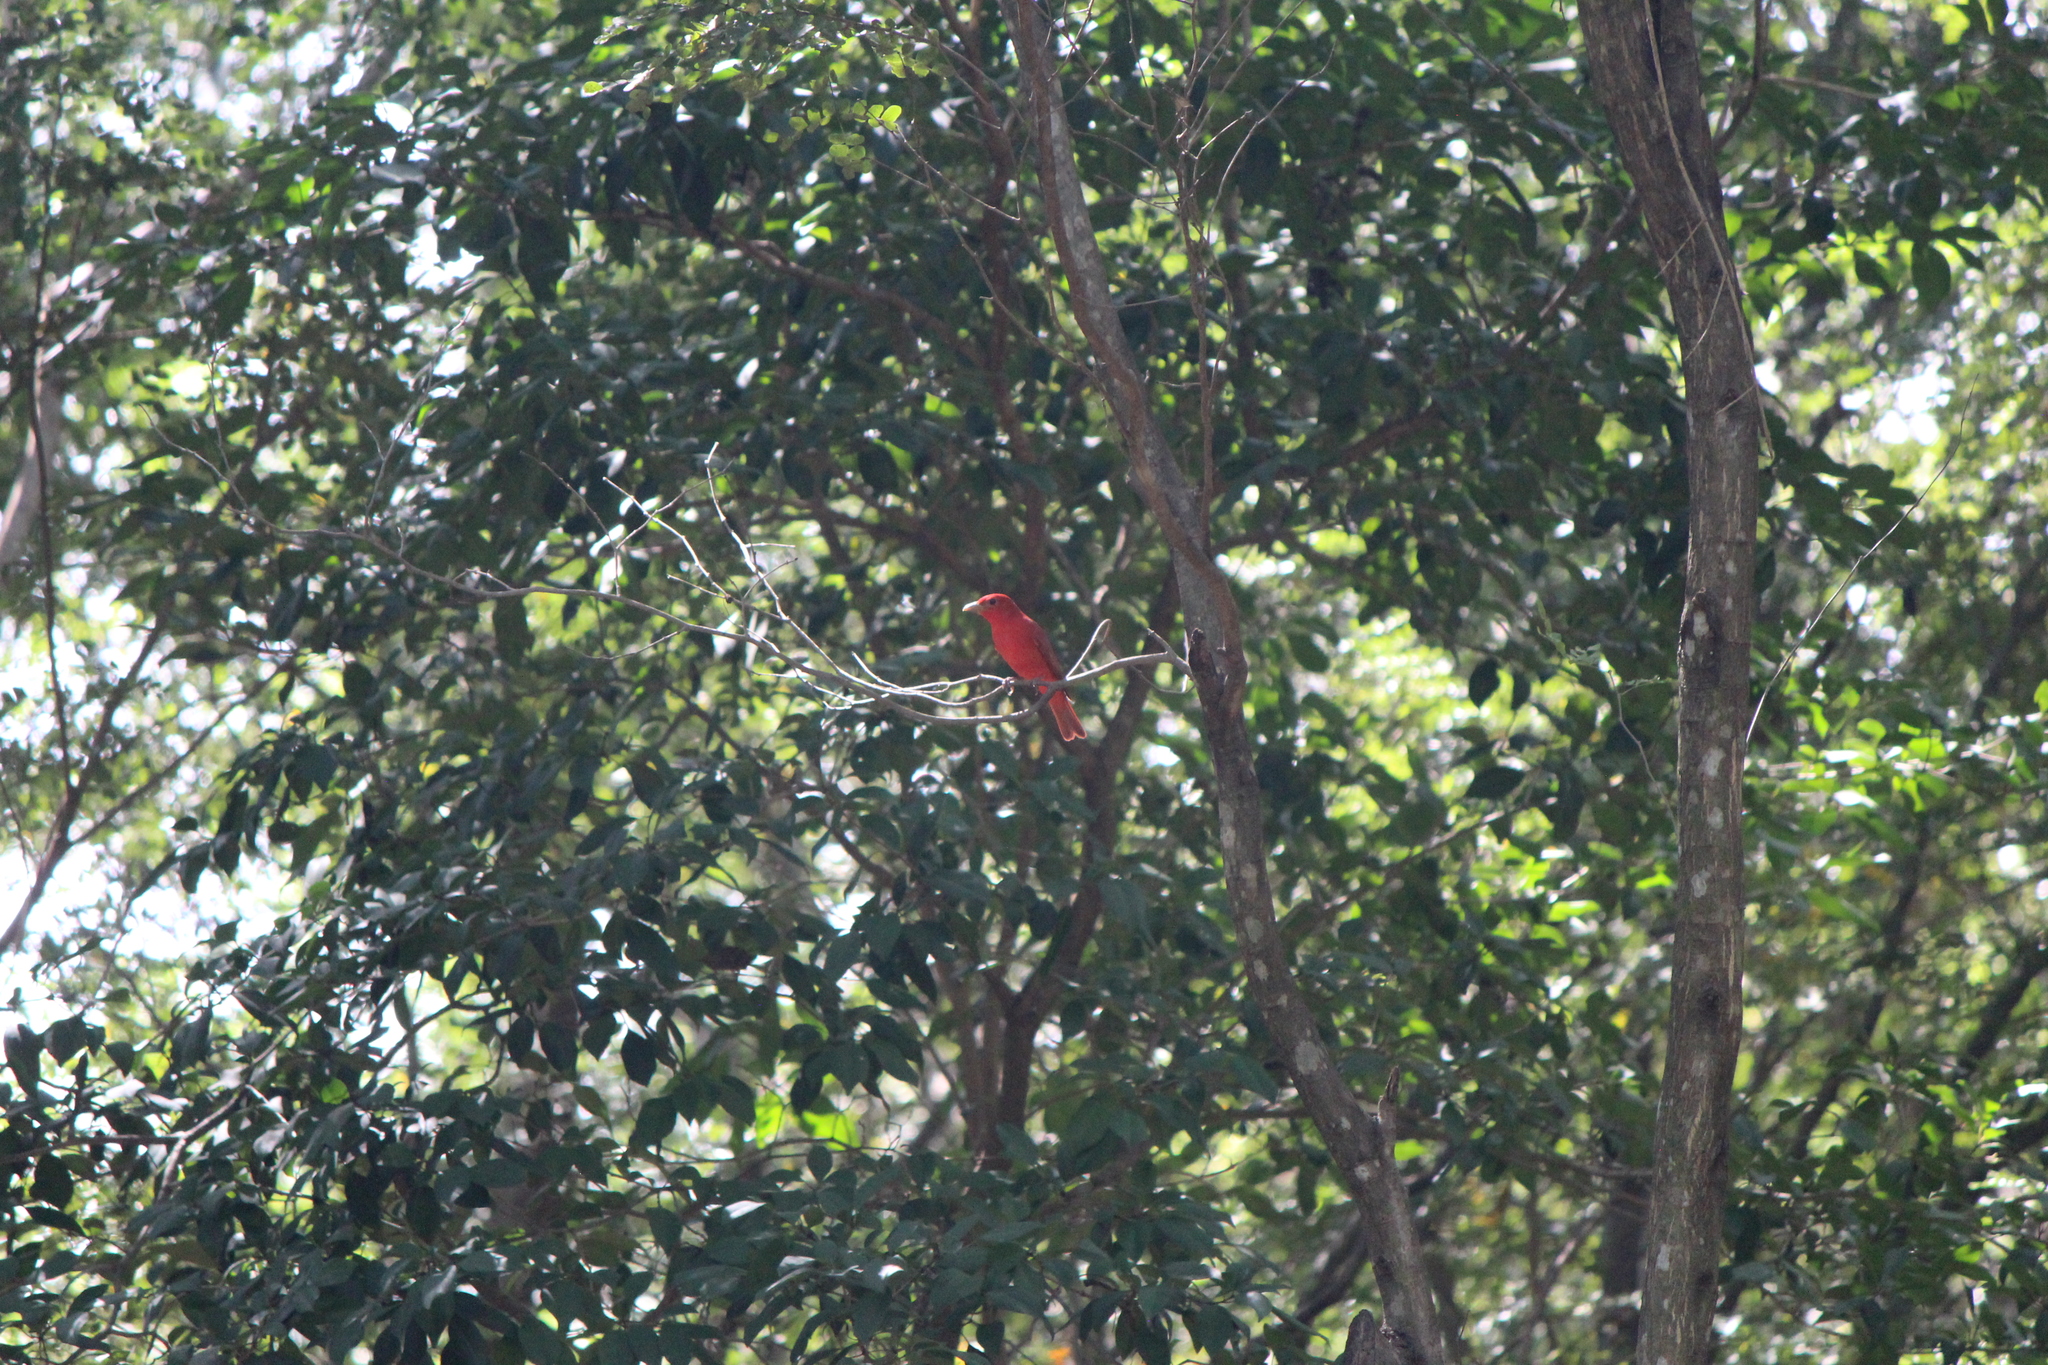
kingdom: Animalia
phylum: Chordata
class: Aves
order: Passeriformes
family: Cardinalidae
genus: Piranga
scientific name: Piranga rubra
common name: Summer tanager
